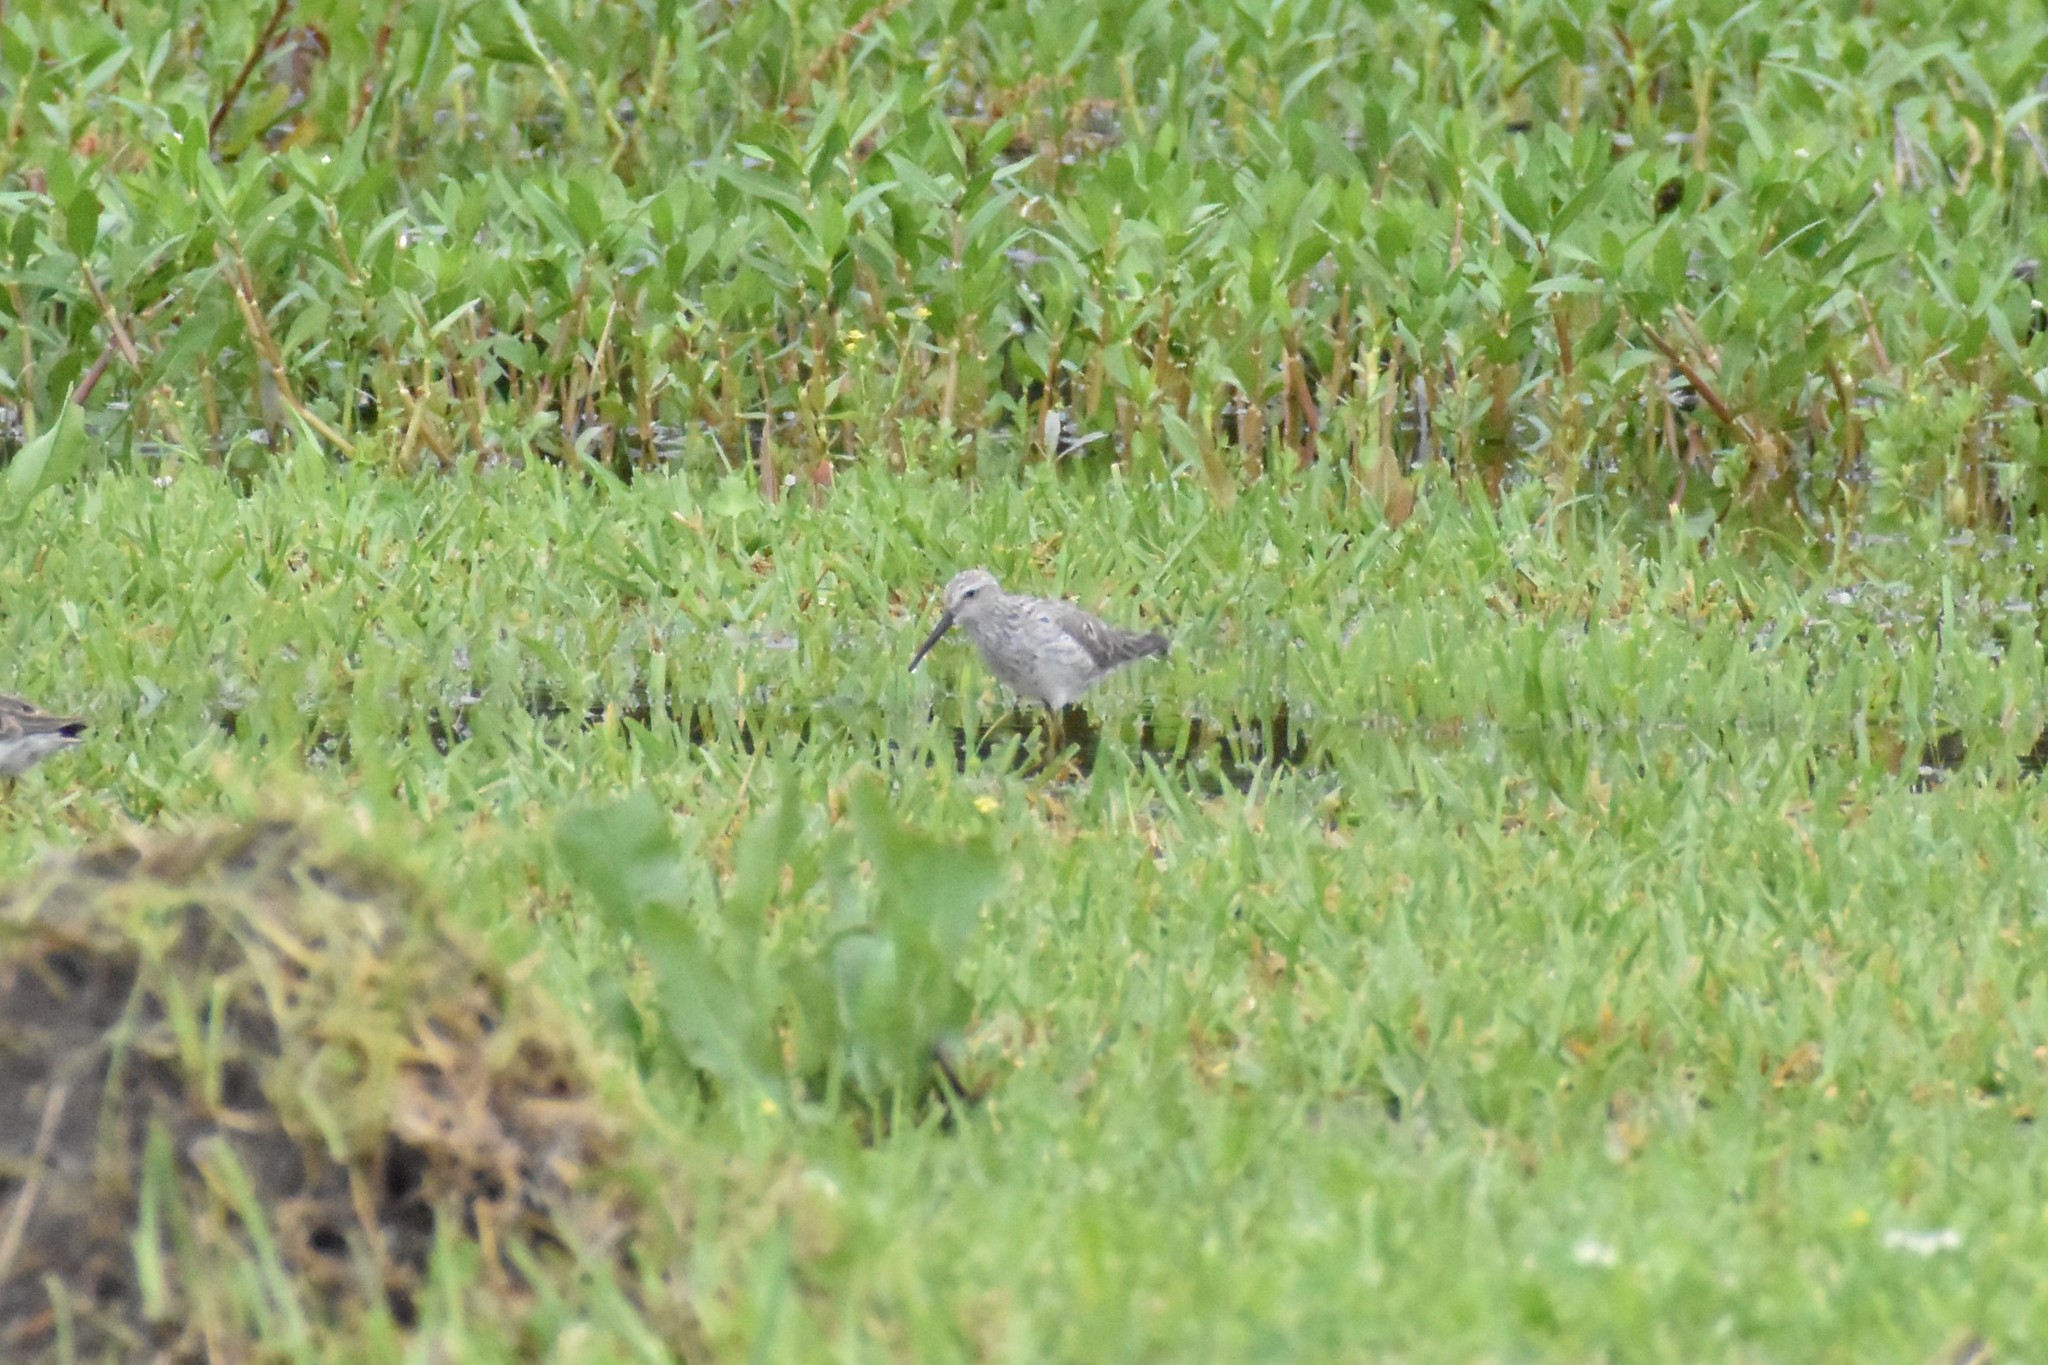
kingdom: Animalia
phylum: Chordata
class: Aves
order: Charadriiformes
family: Scolopacidae
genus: Calidris
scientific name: Calidris himantopus
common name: Stilt sandpiper
